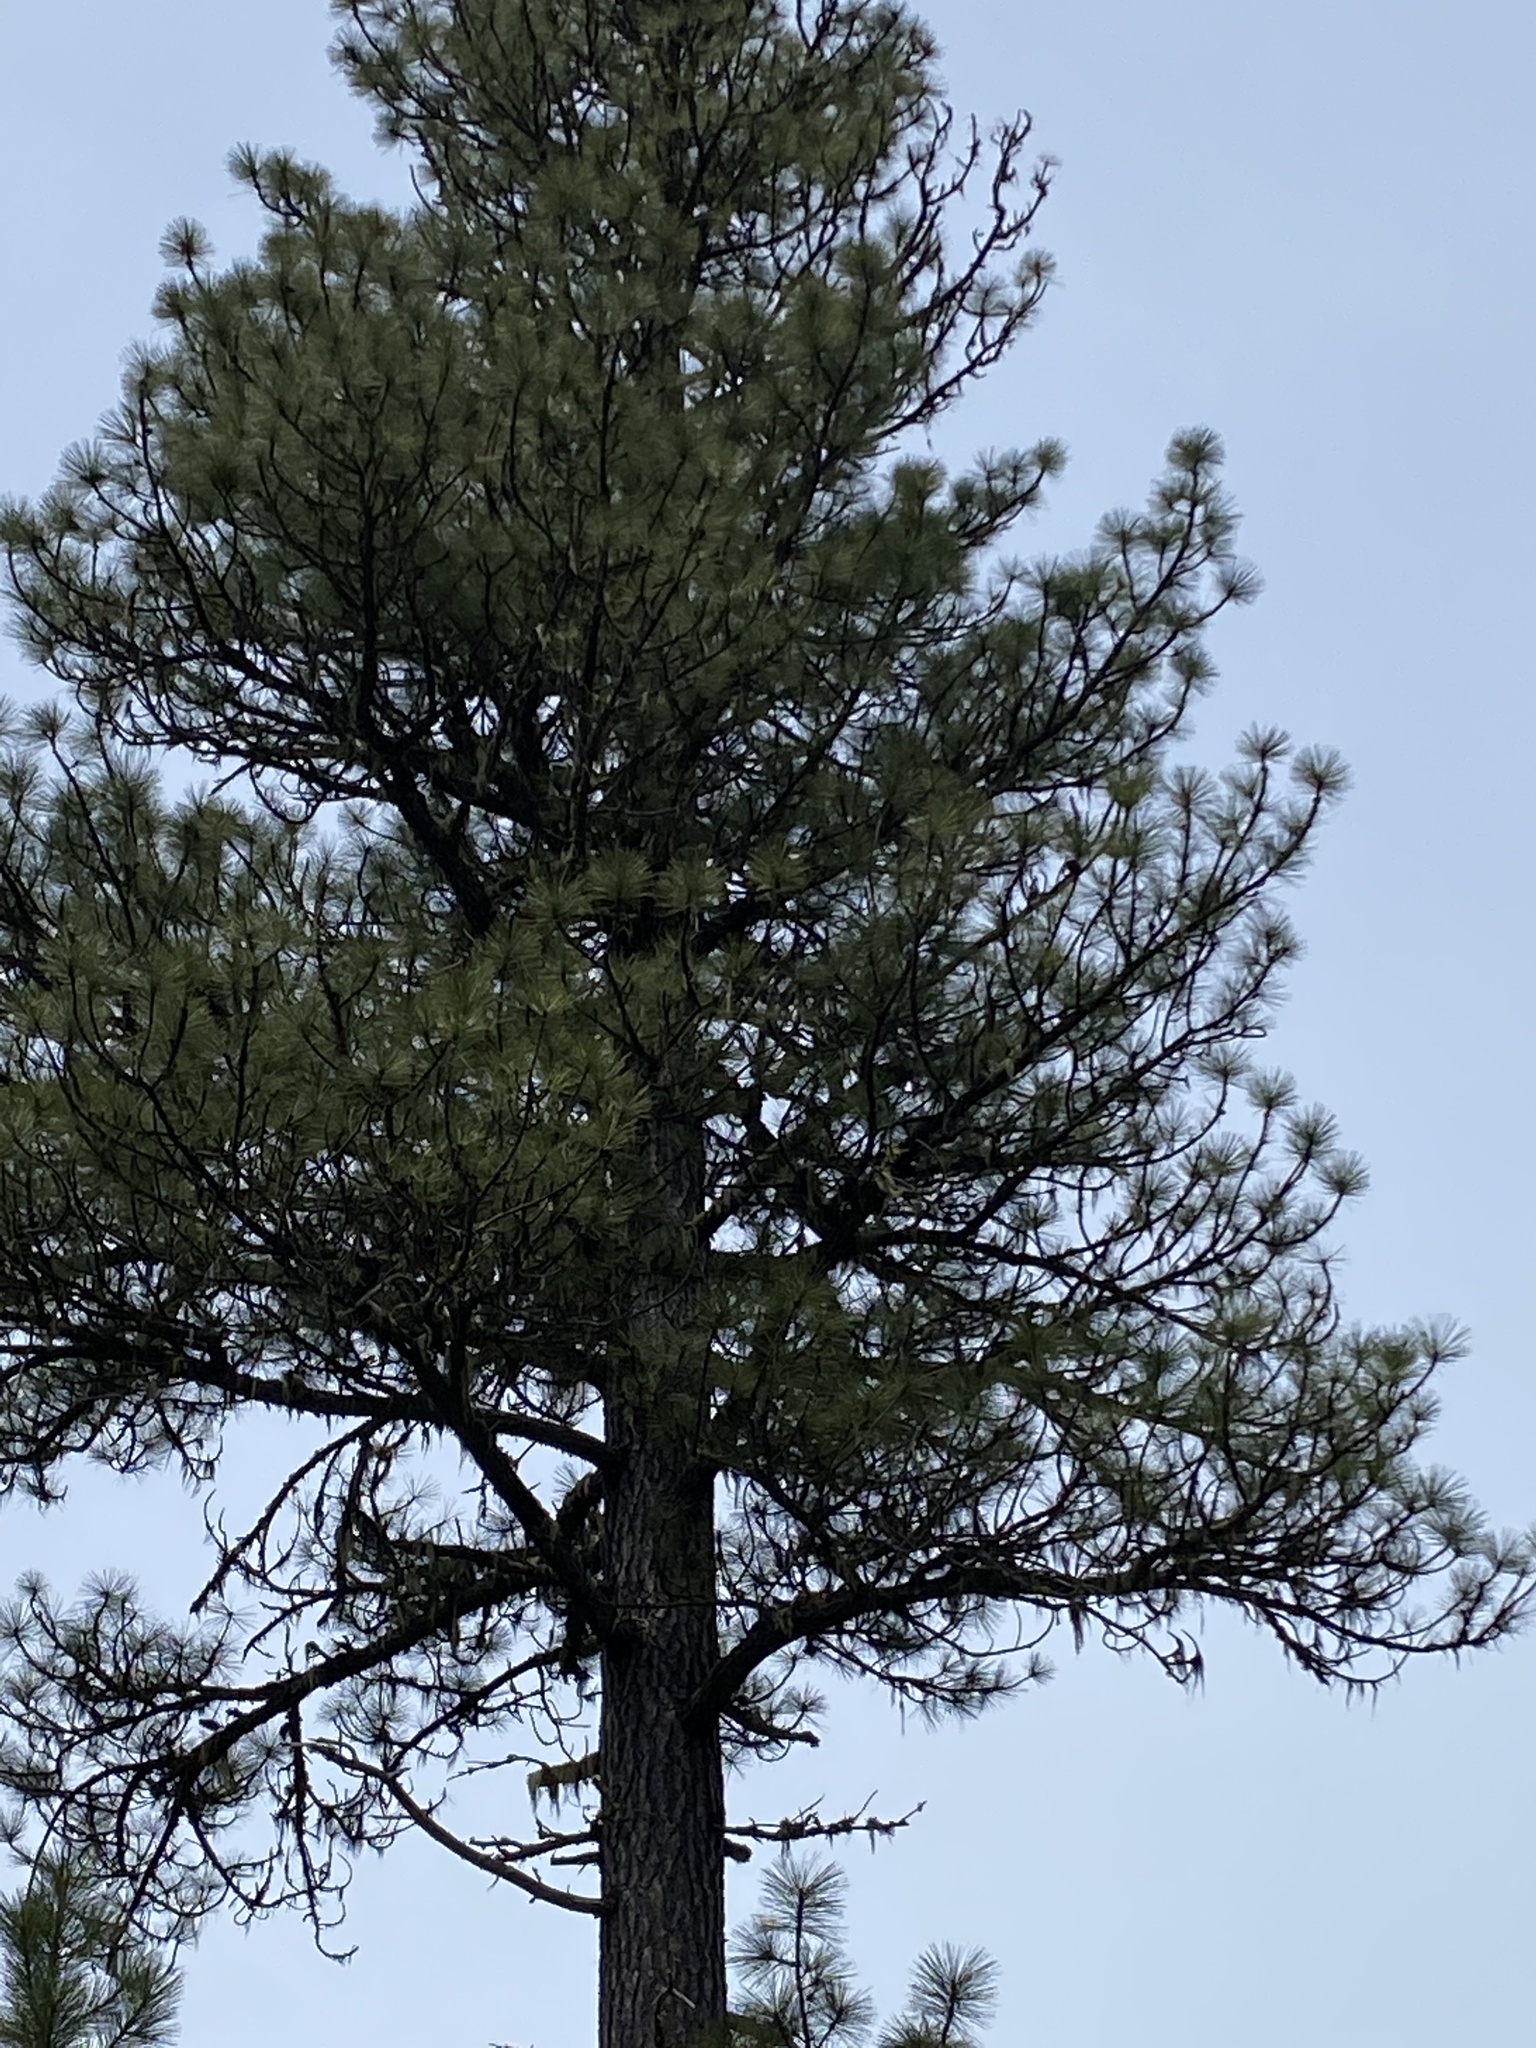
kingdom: Plantae
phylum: Tracheophyta
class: Pinopsida
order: Pinales
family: Pinaceae
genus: Pinus
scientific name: Pinus ponderosa
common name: Western yellow-pine
